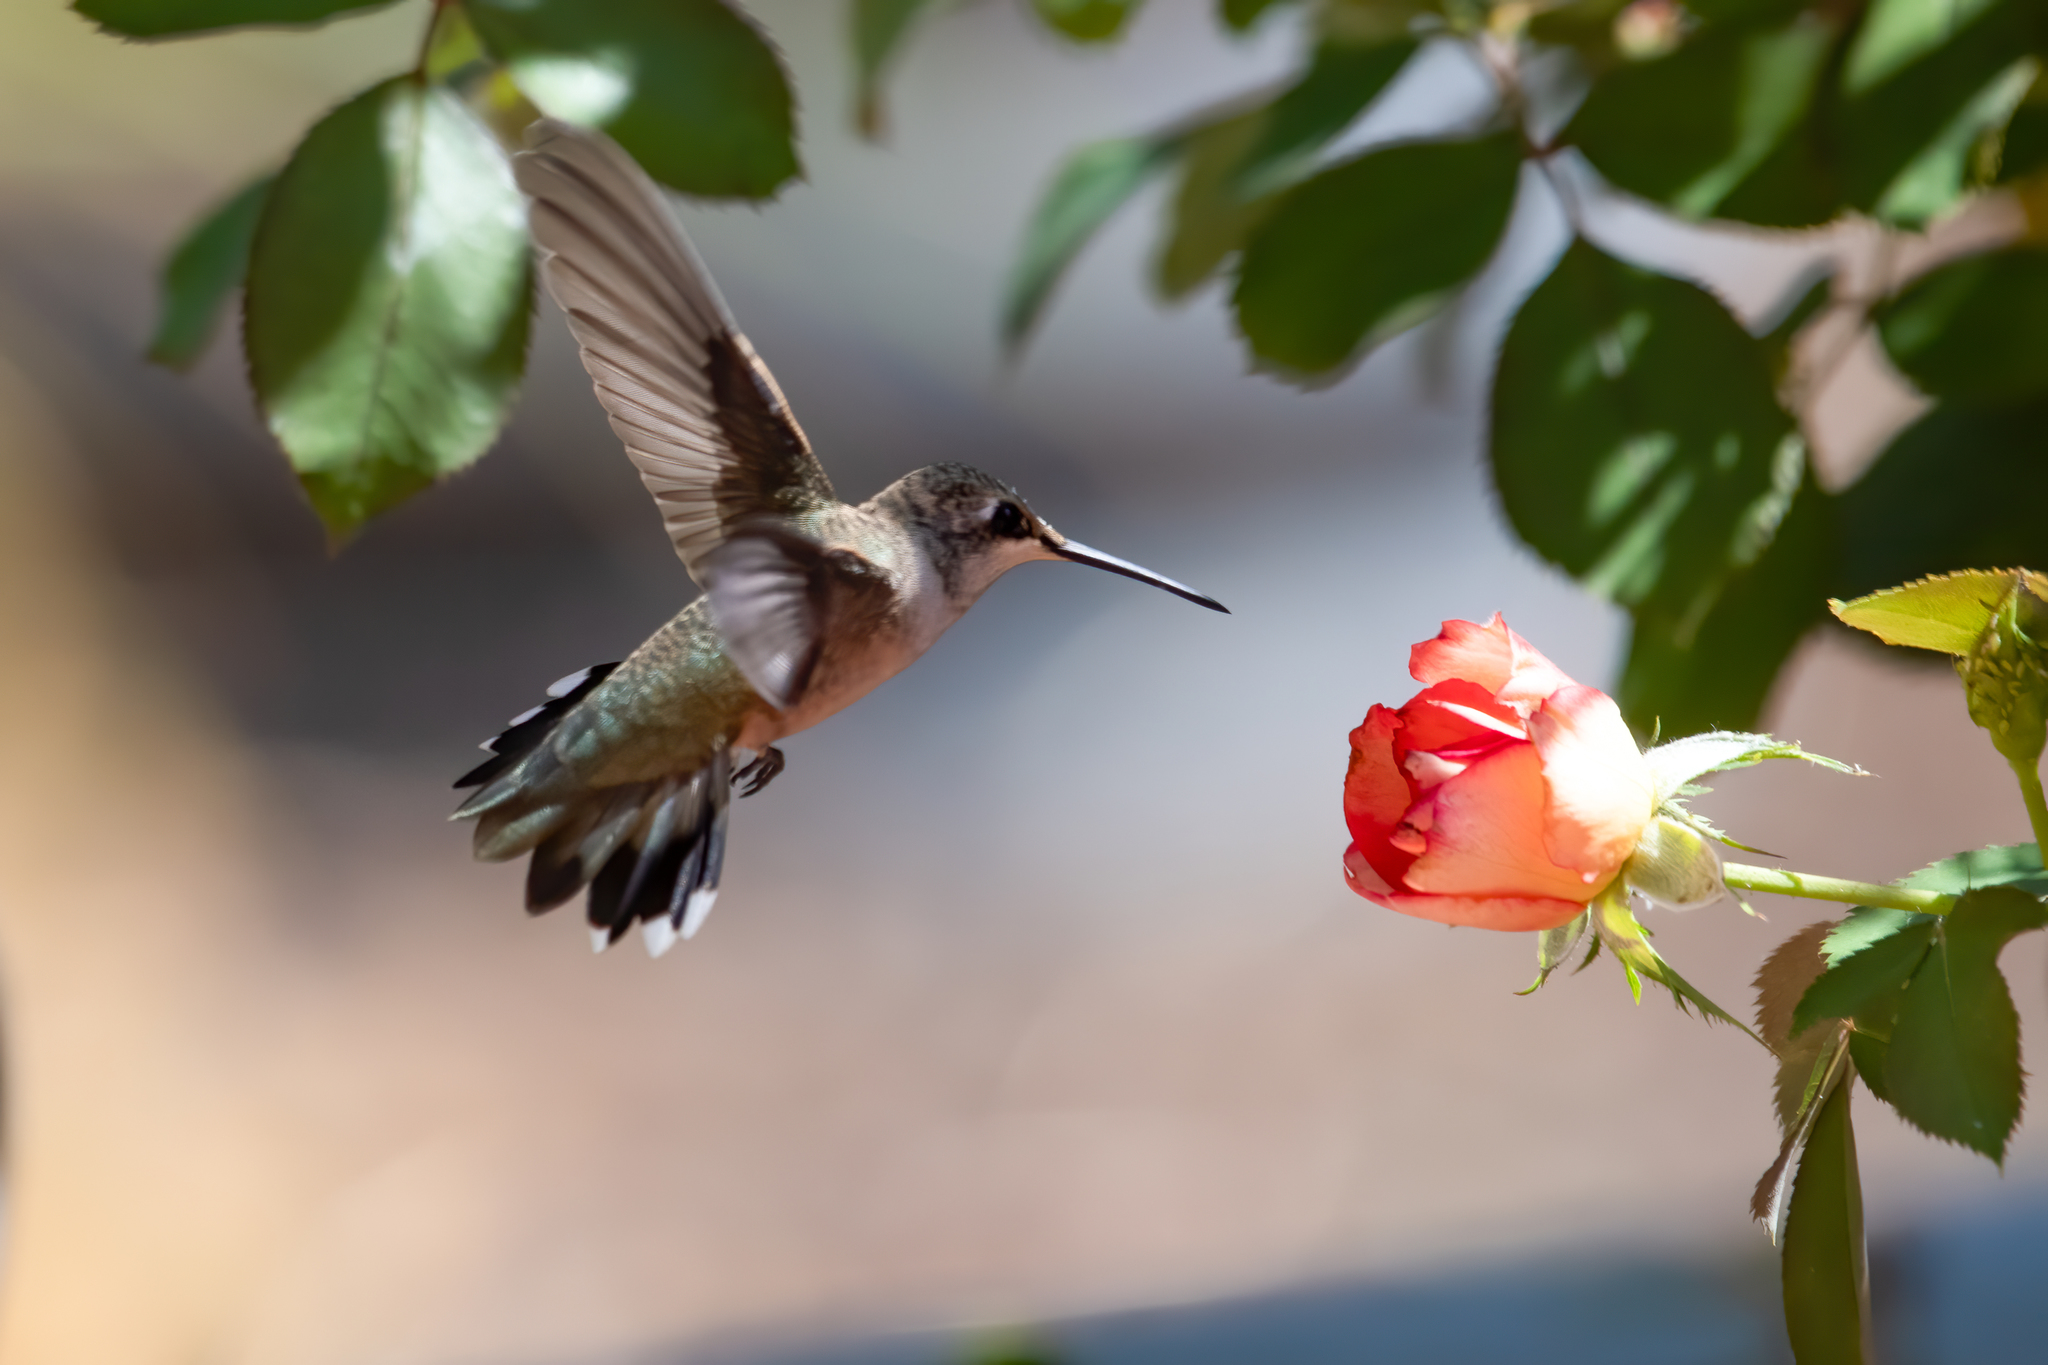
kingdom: Animalia
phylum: Chordata
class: Aves
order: Apodiformes
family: Trochilidae
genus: Archilochus
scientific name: Archilochus alexandri
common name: Black-chinned hummingbird
